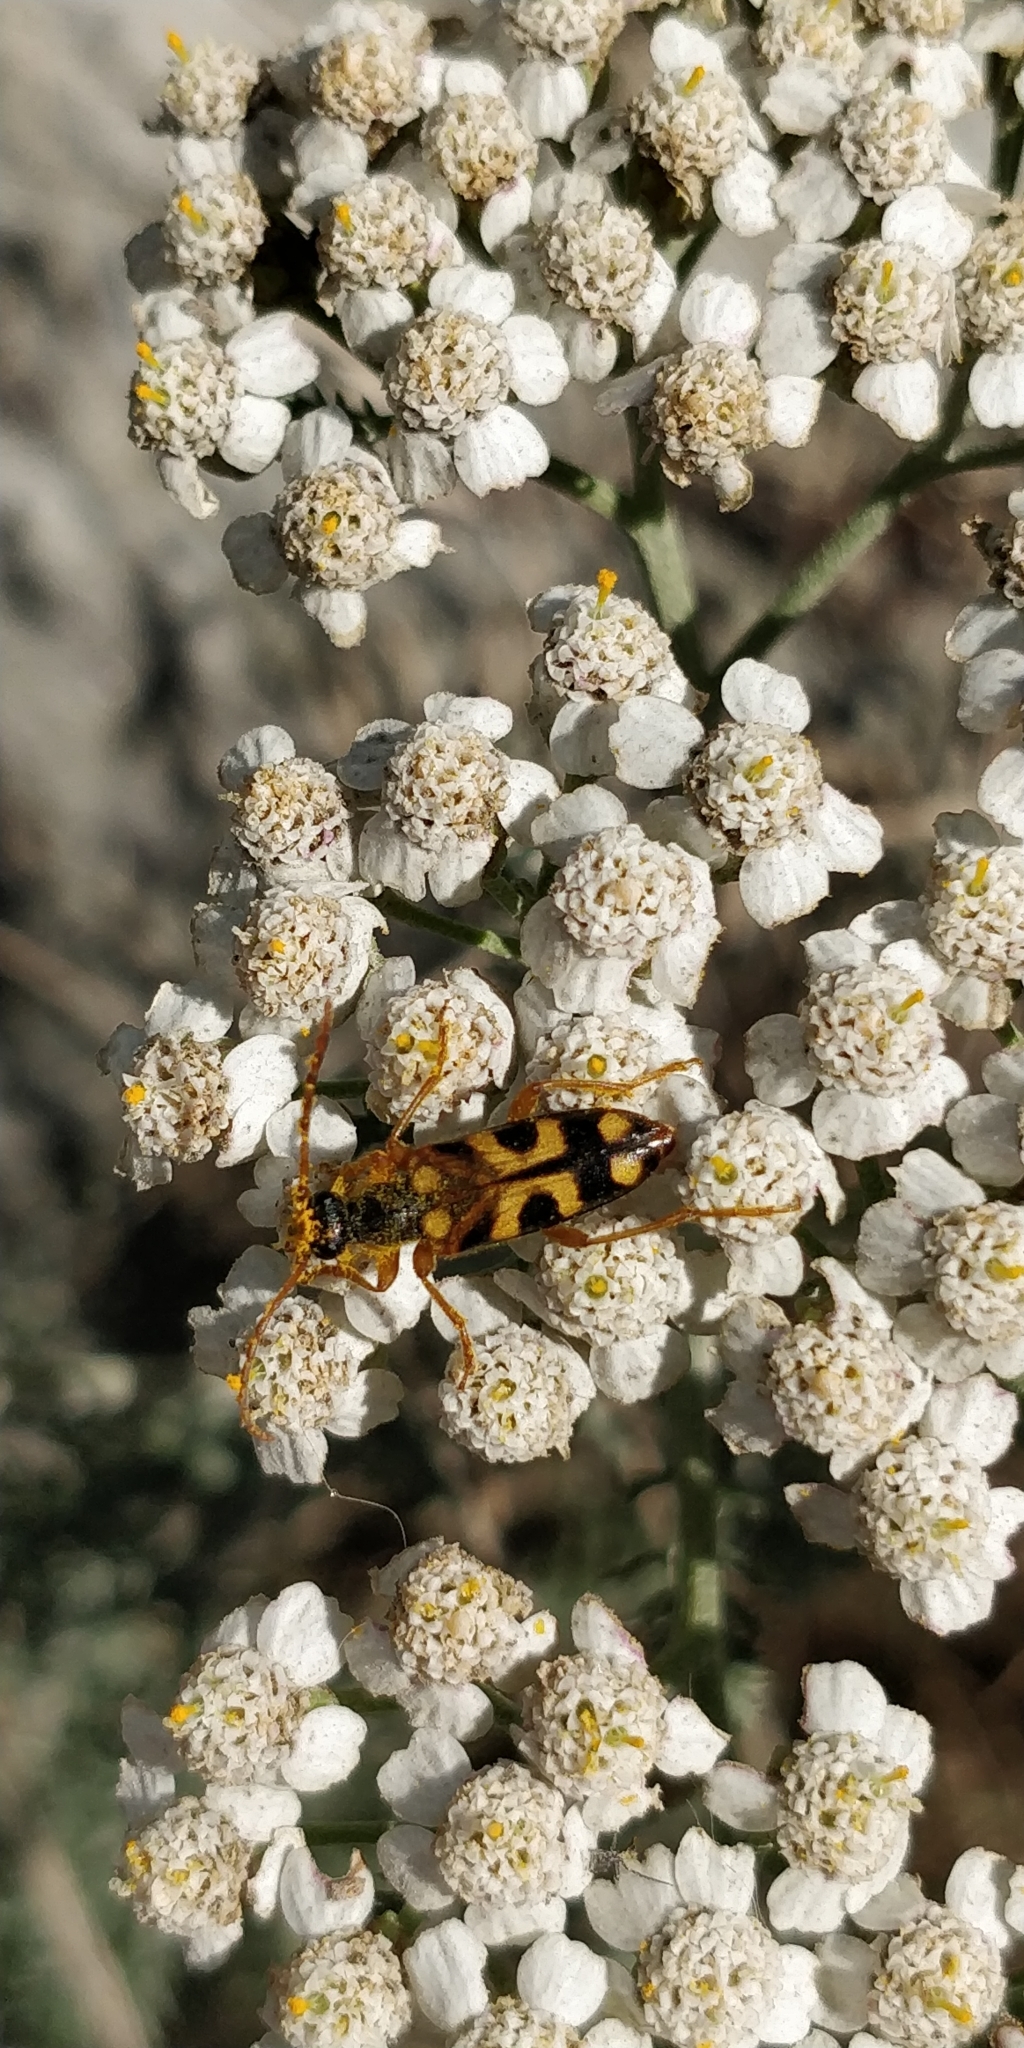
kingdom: Animalia
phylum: Arthropoda
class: Insecta
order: Coleoptera
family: Cerambycidae
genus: Xestoleptura
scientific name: Xestoleptura crassipes
